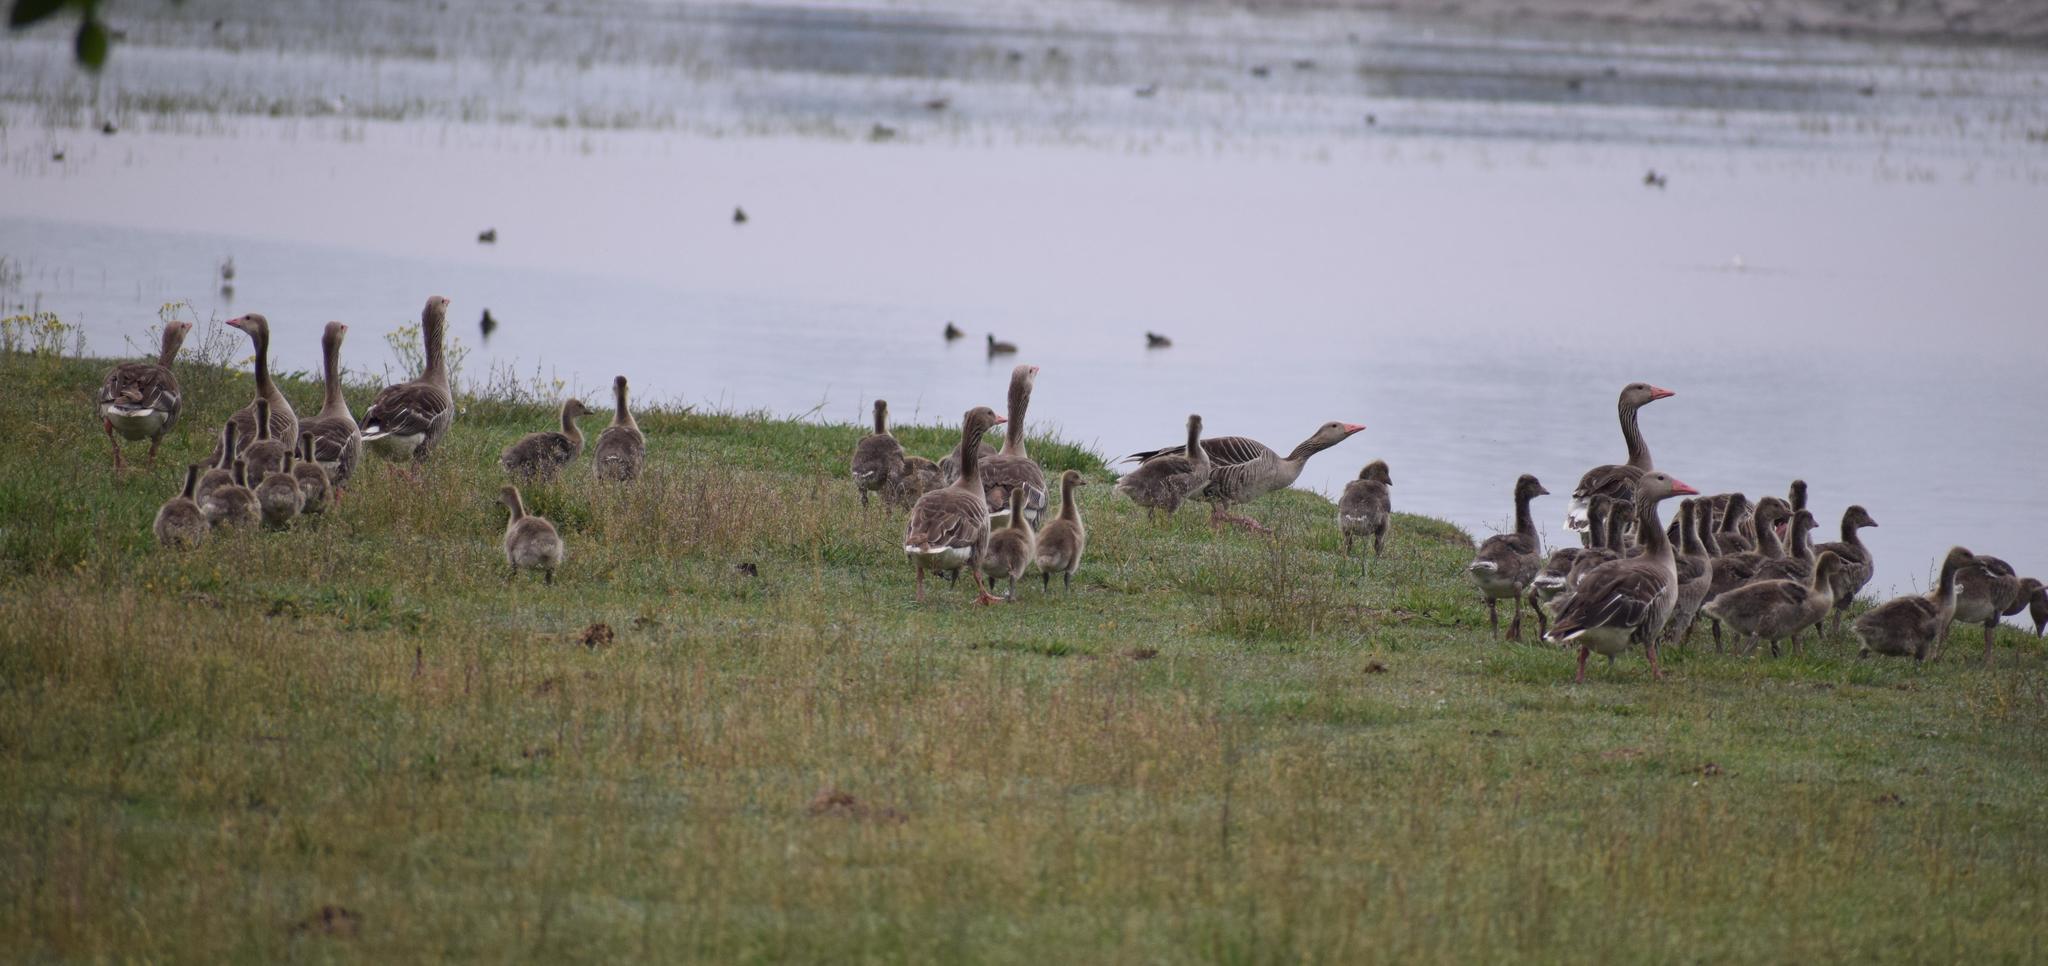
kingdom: Animalia
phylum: Chordata
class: Aves
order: Anseriformes
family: Anatidae
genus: Anser
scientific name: Anser anser
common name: Greylag goose
